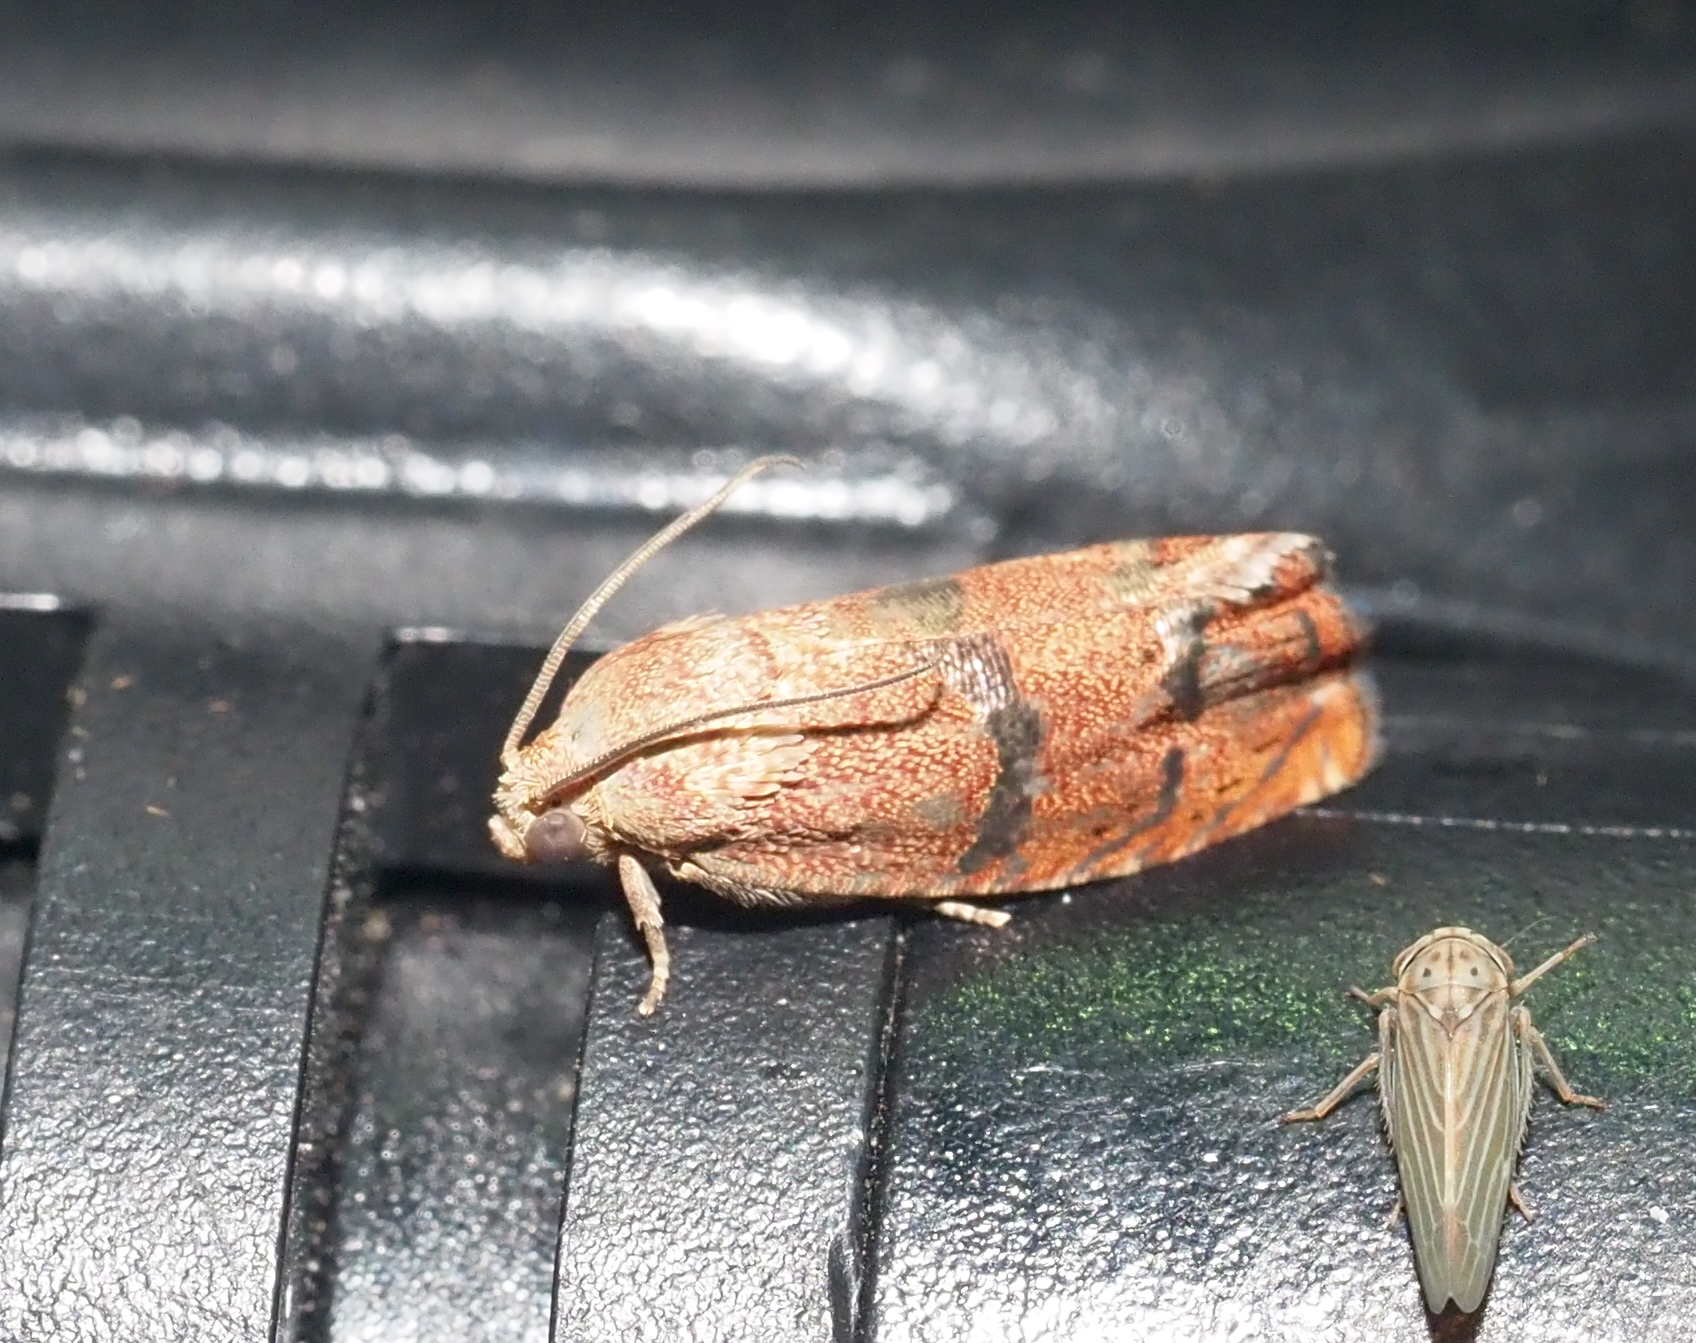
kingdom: Animalia
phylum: Arthropoda
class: Insecta
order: Lepidoptera
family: Tortricidae
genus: Cydia
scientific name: Cydia latiferreana
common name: Filbertworm moth
